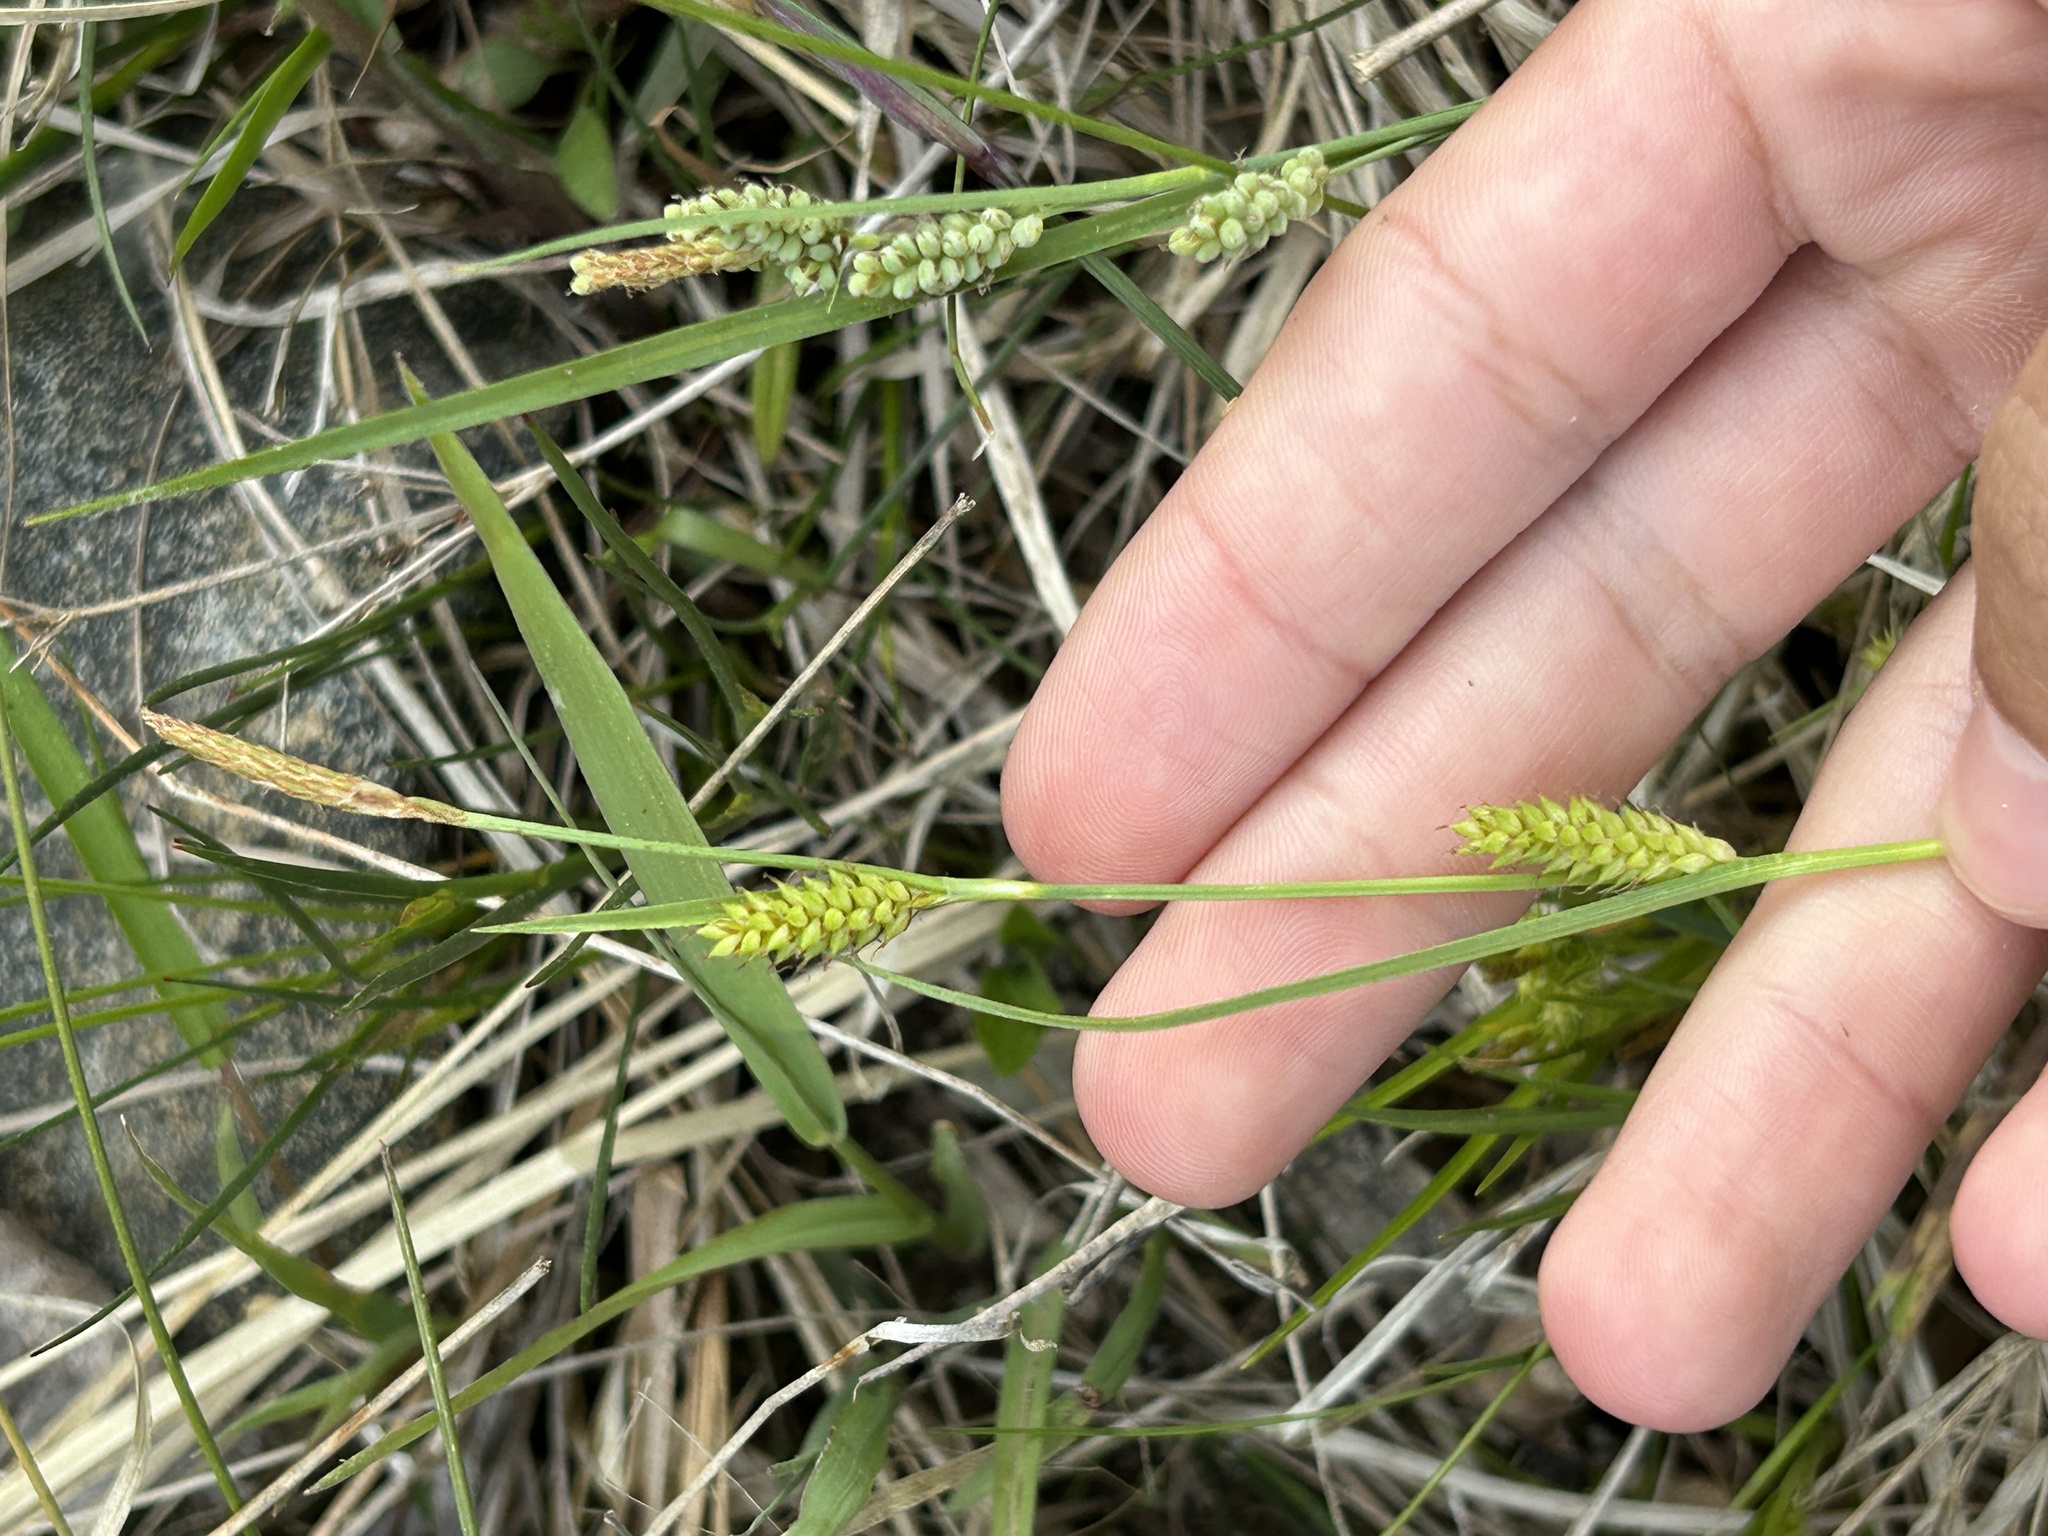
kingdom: Plantae
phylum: Tracheophyta
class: Liliopsida
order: Poales
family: Cyperaceae
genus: Carex
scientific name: Carex crawei
